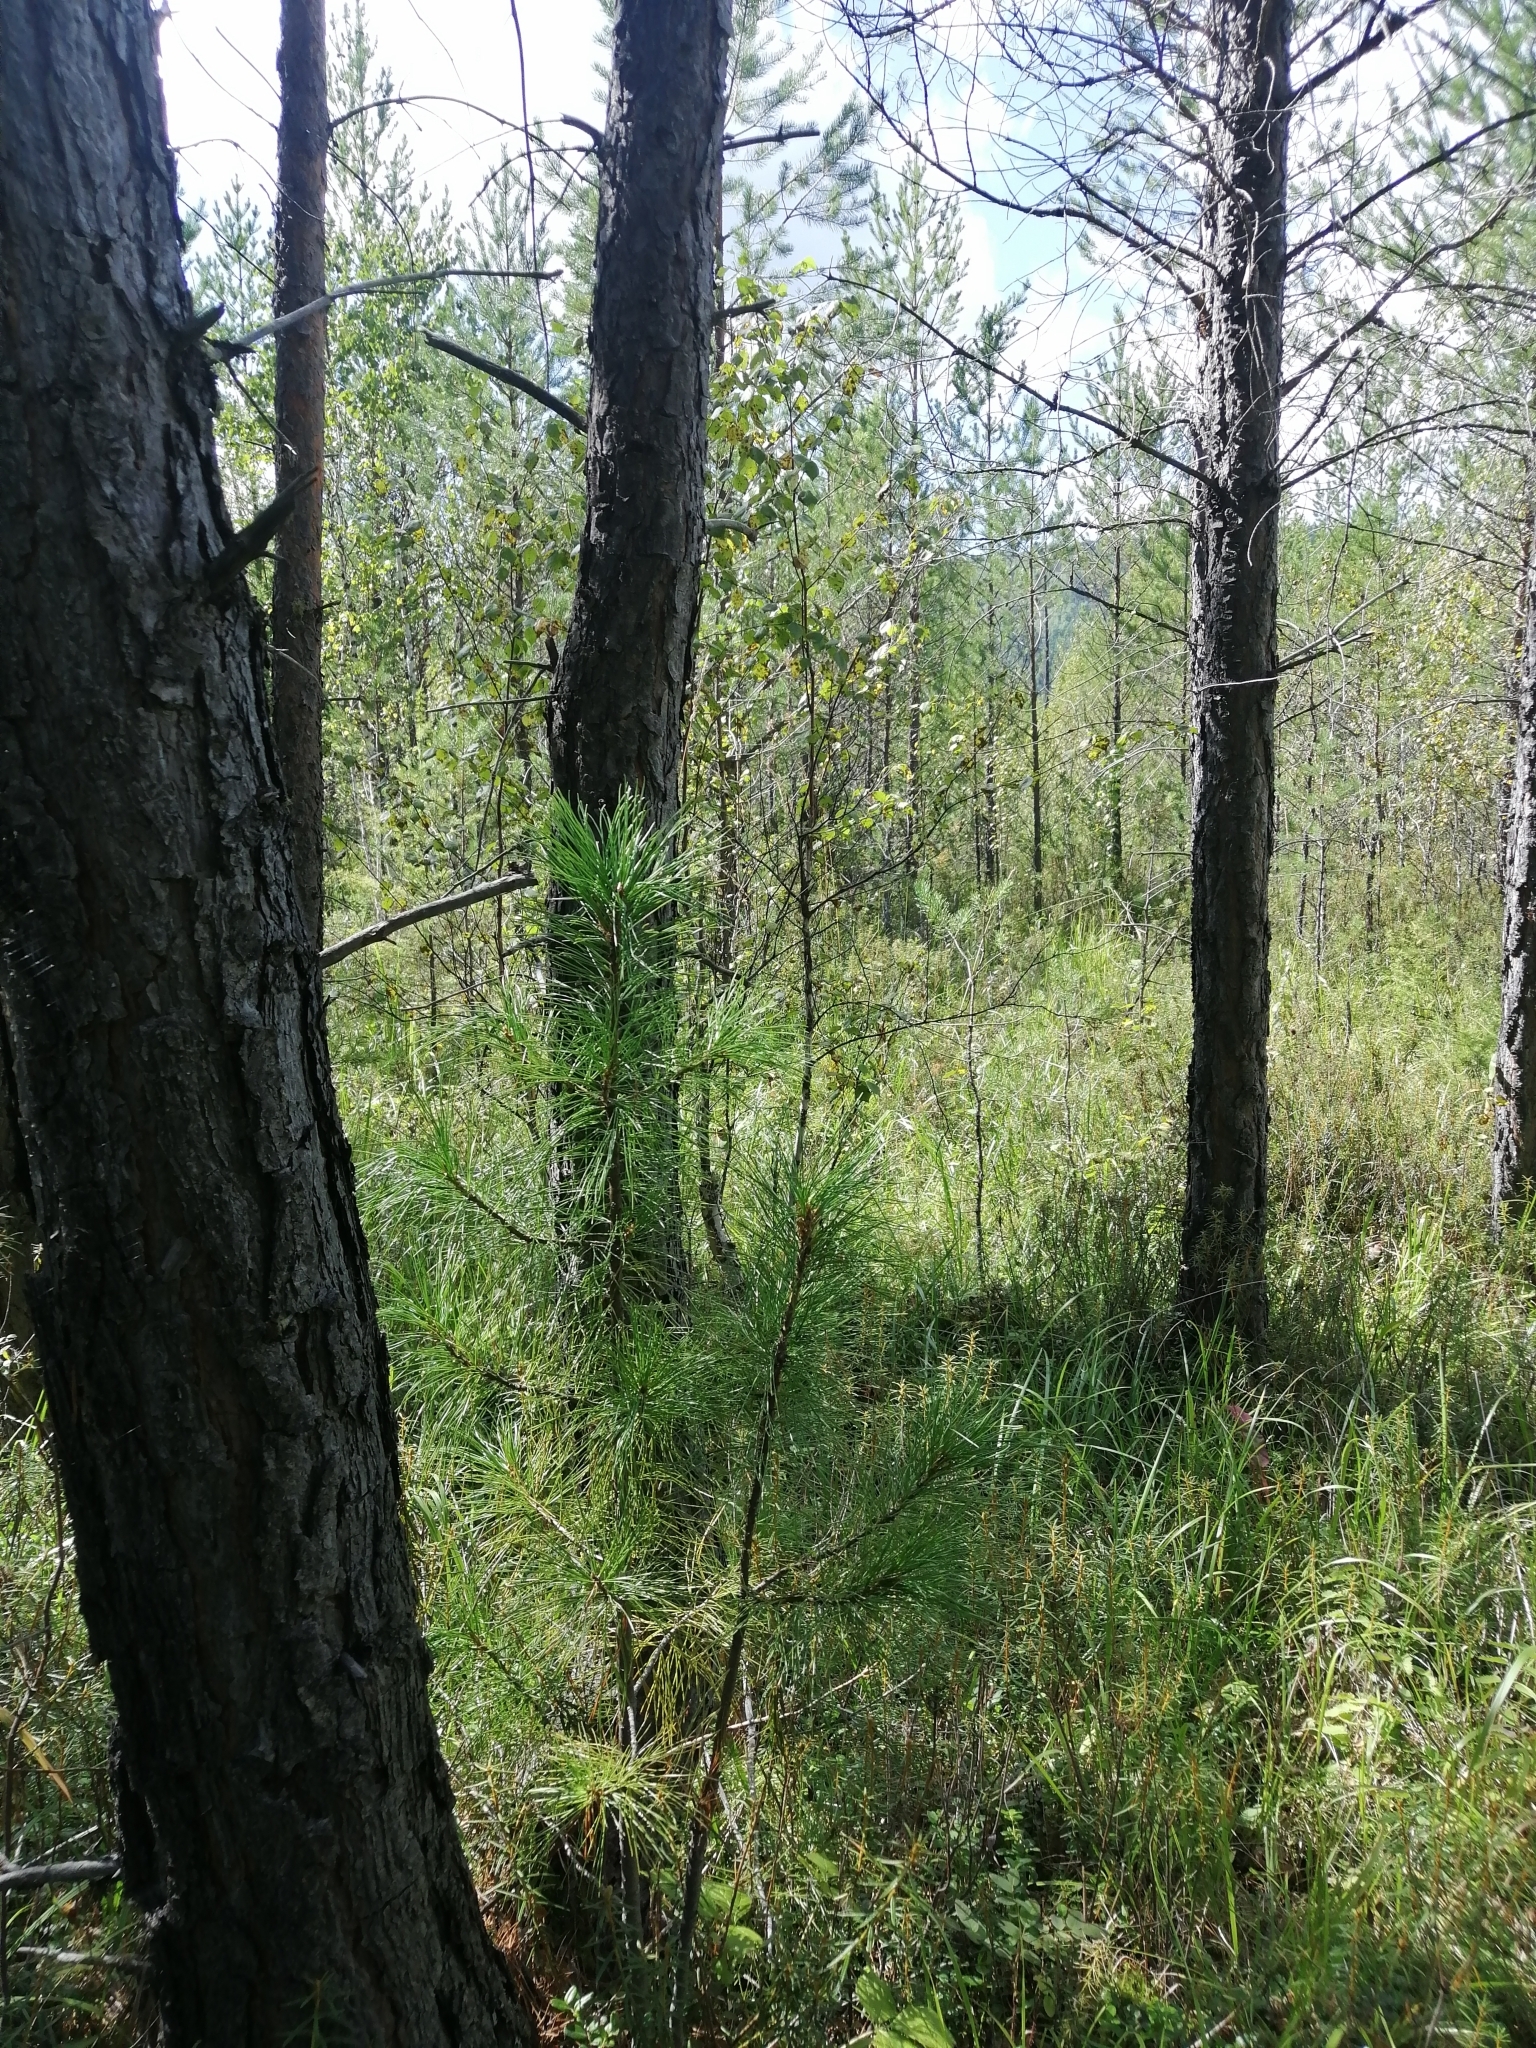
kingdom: Plantae
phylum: Tracheophyta
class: Pinopsida
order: Pinales
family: Pinaceae
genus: Pinus
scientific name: Pinus sibirica
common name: Siberian pine
